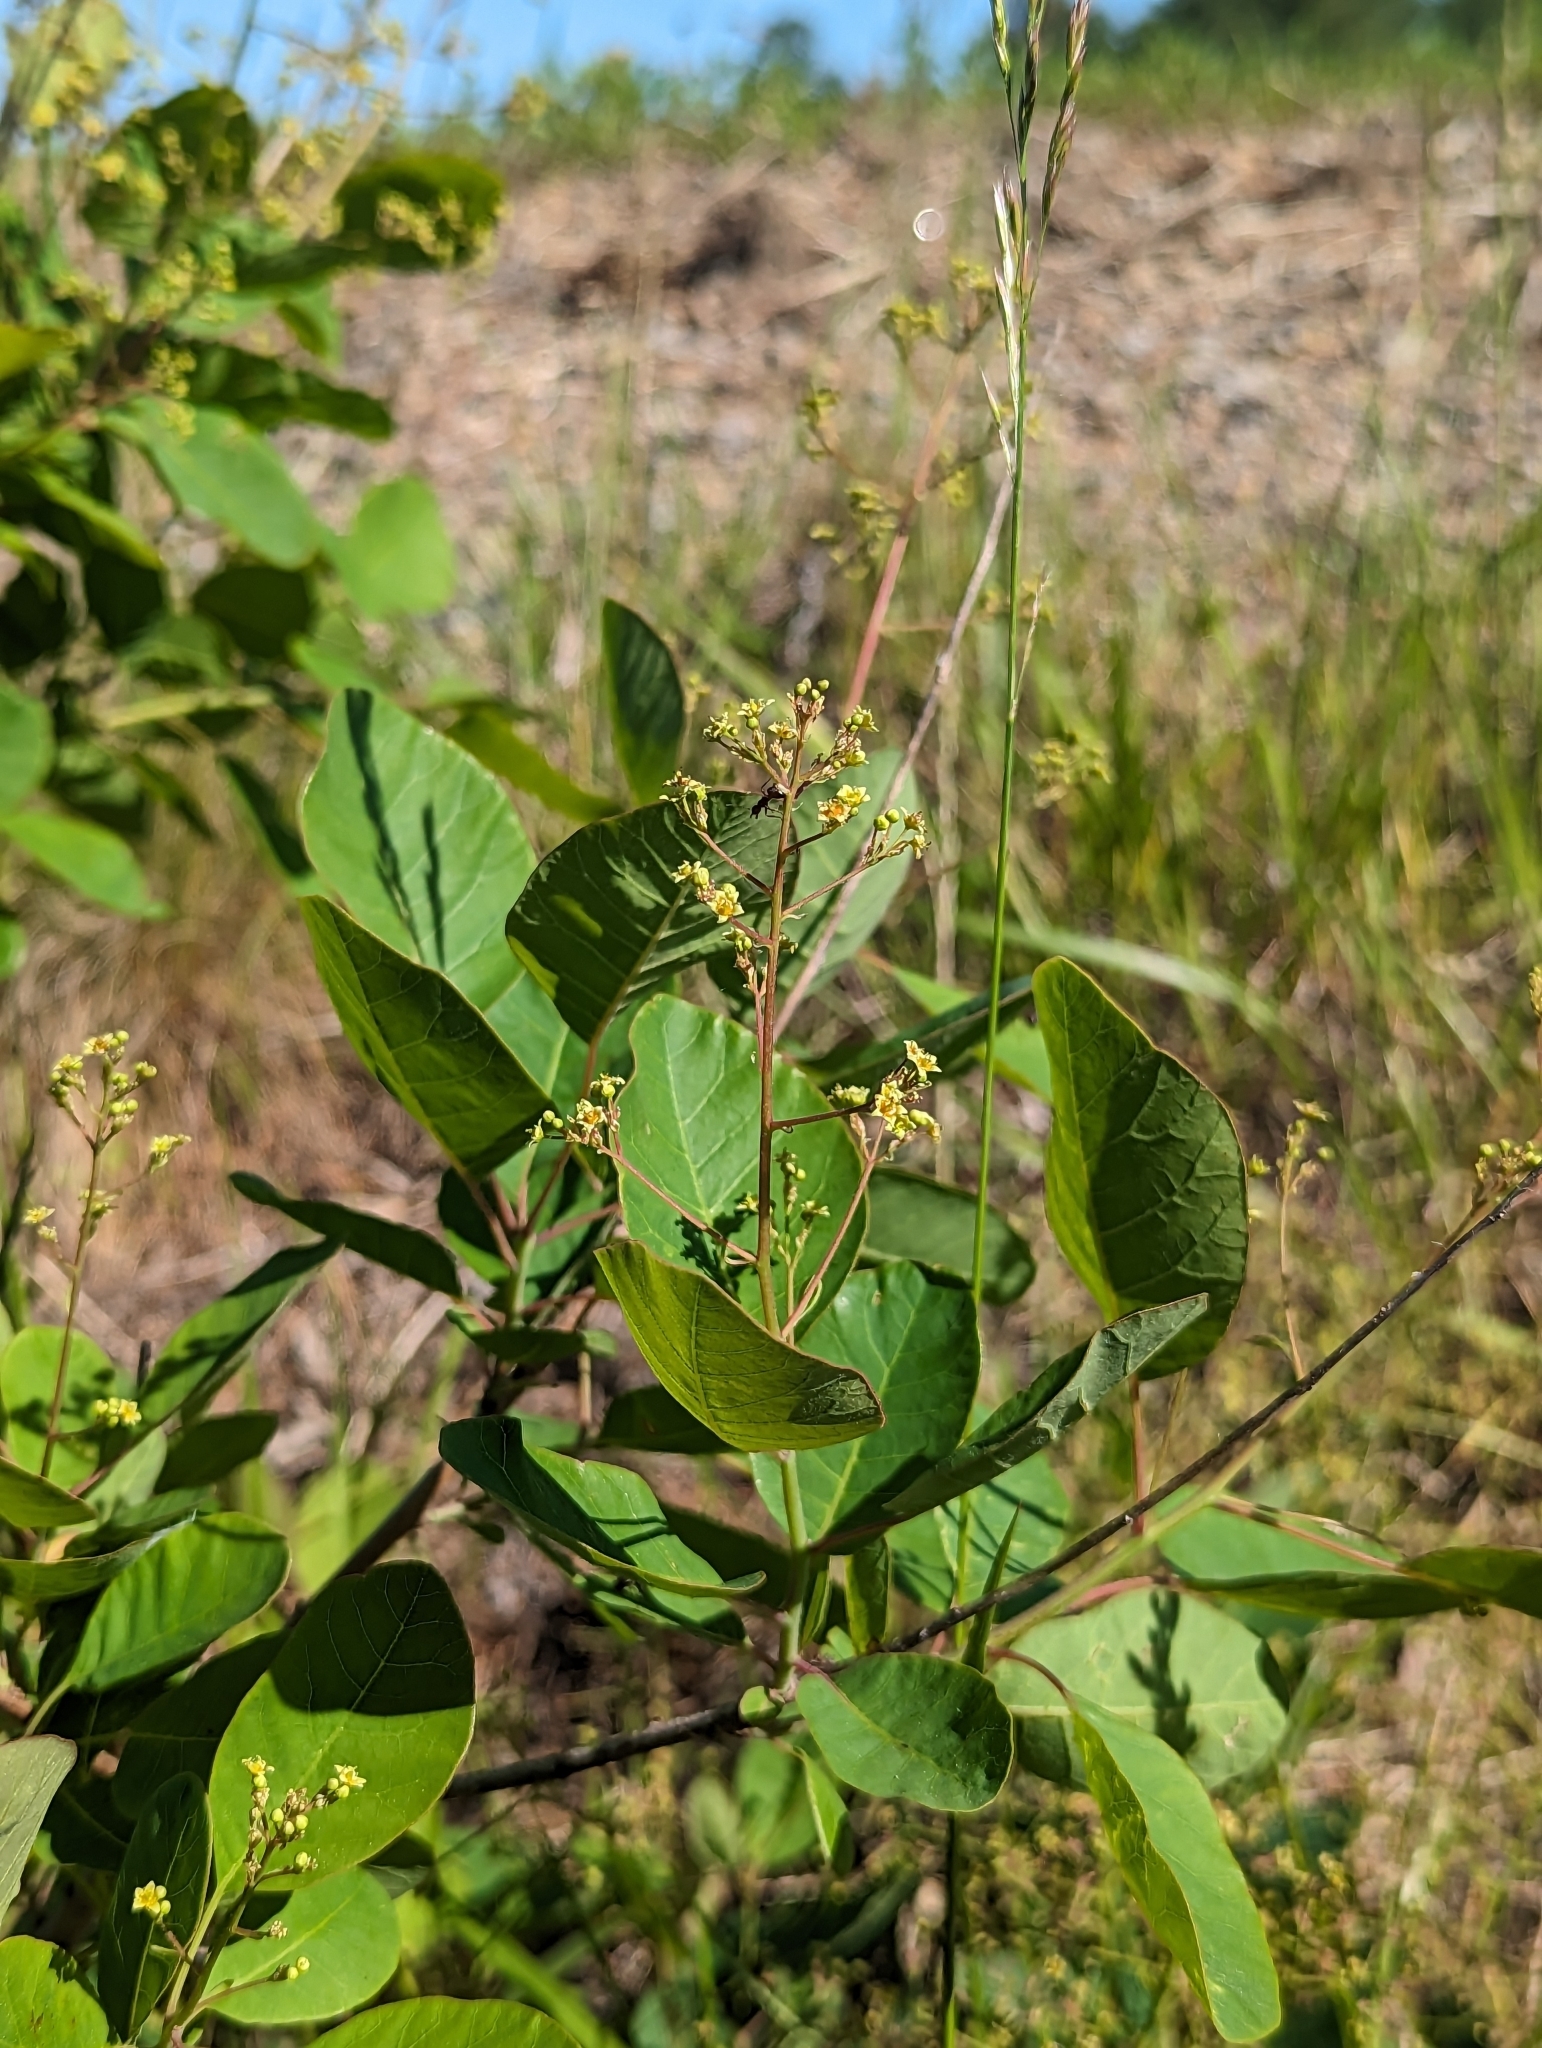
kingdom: Plantae
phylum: Tracheophyta
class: Magnoliopsida
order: Sapindales
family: Anacardiaceae
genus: Cotinus
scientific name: Cotinus coggygria
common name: Smoke-tree
